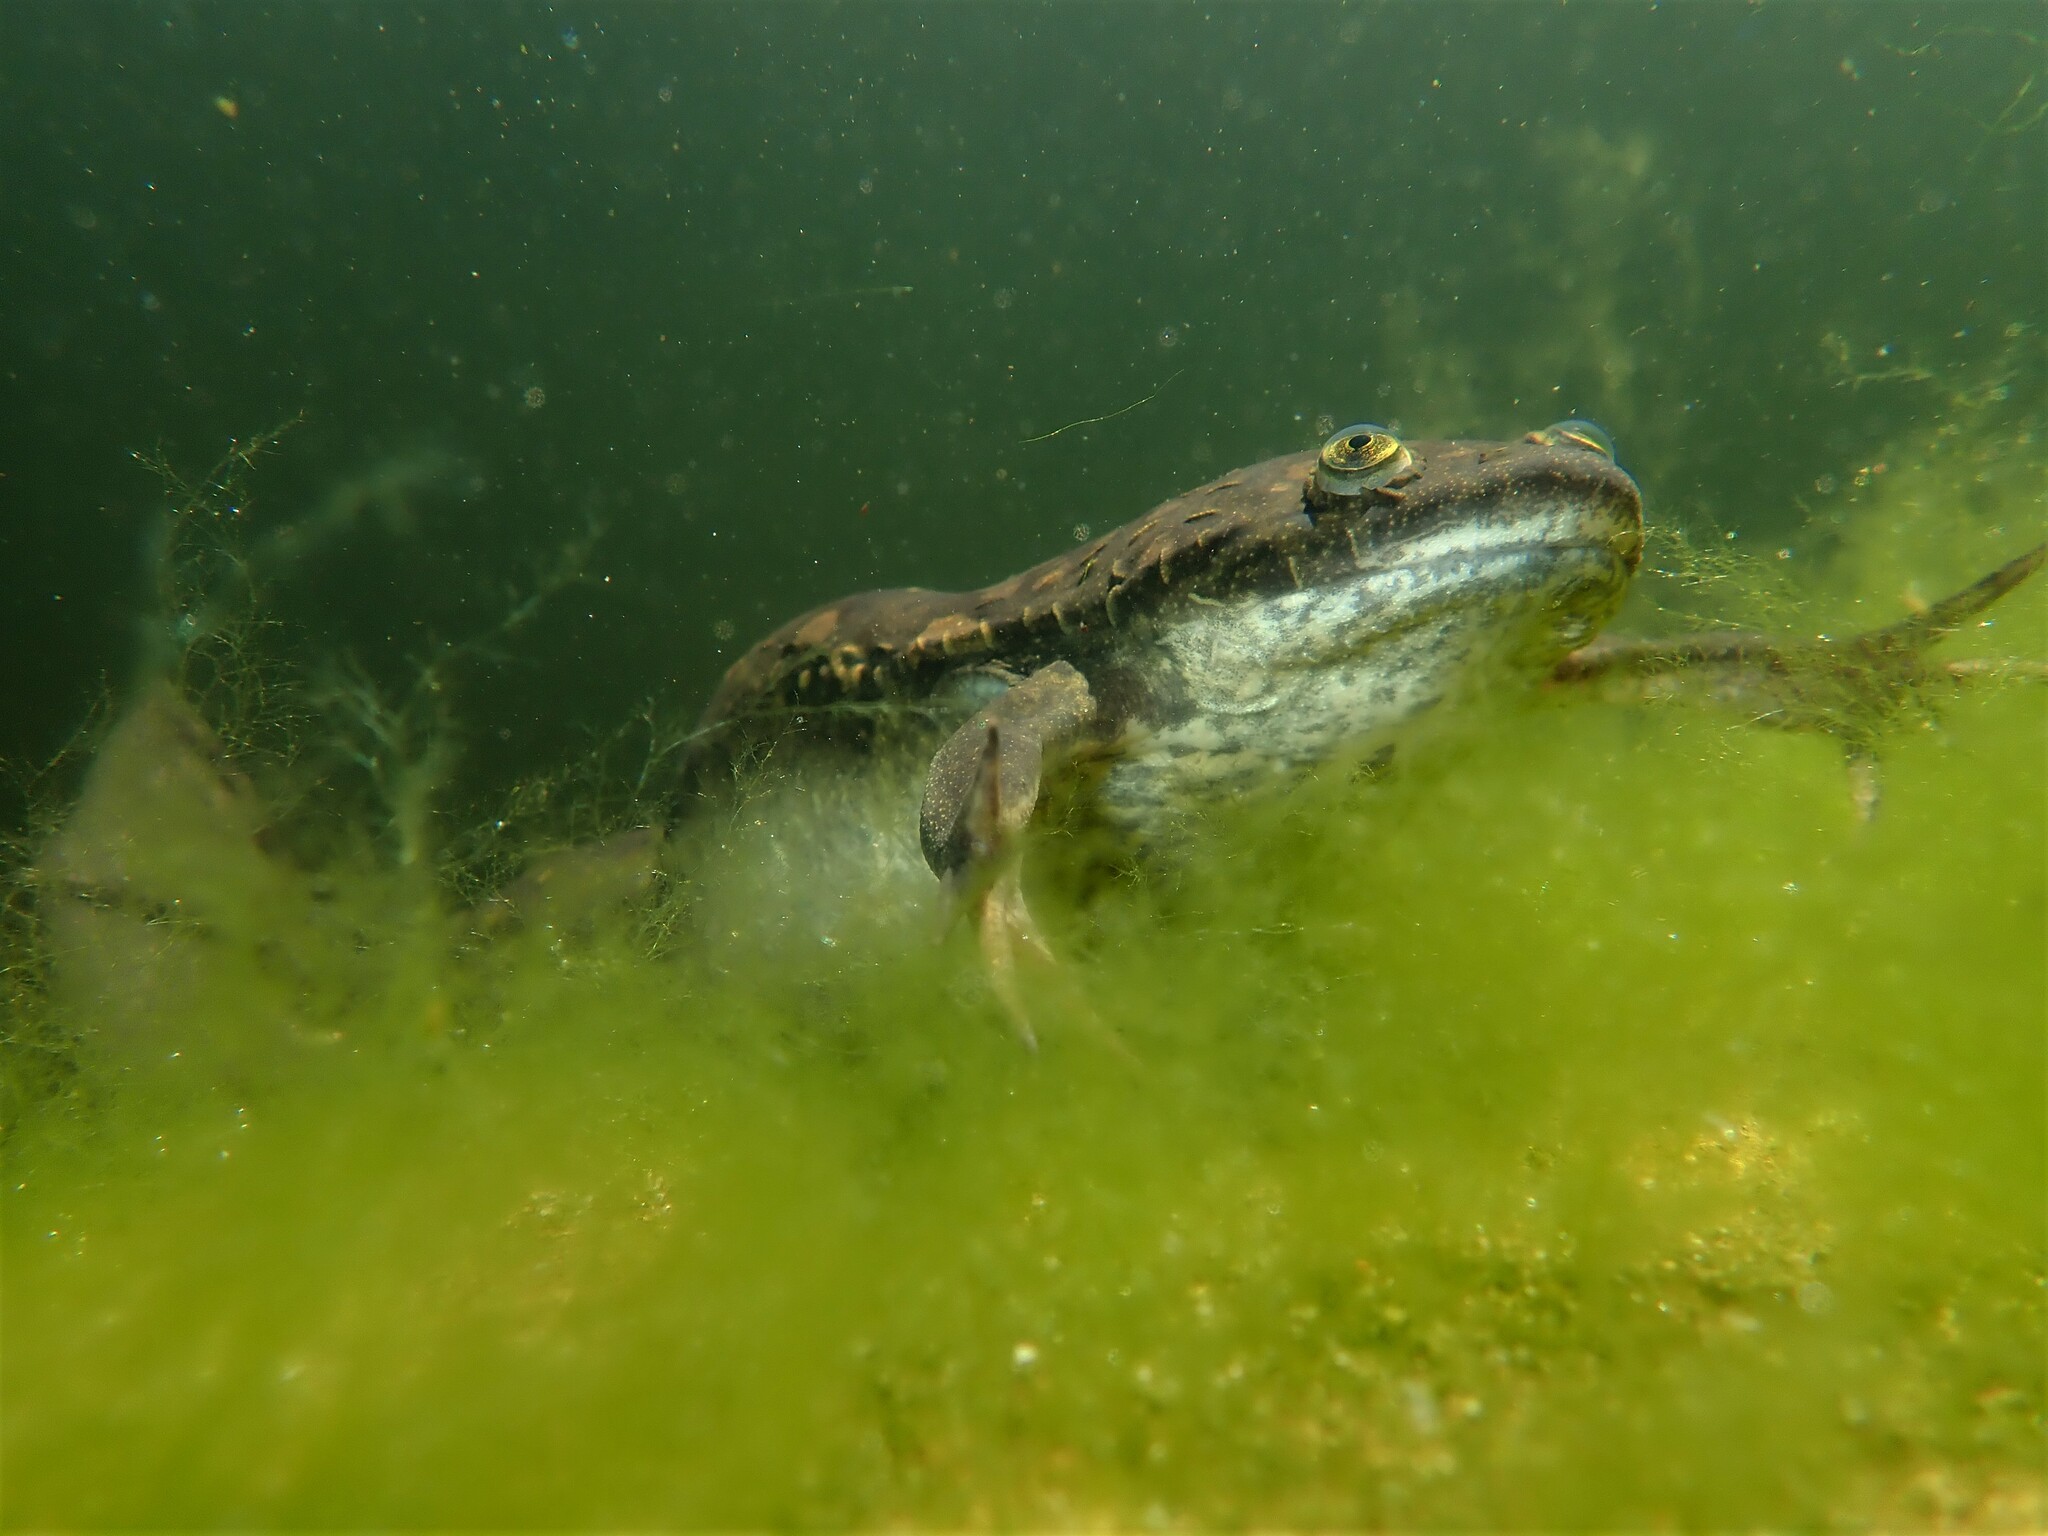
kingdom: Animalia
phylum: Chordata
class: Amphibia
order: Anura
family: Pipidae
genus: Xenopus
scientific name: Xenopus laevis
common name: African clawed frog
